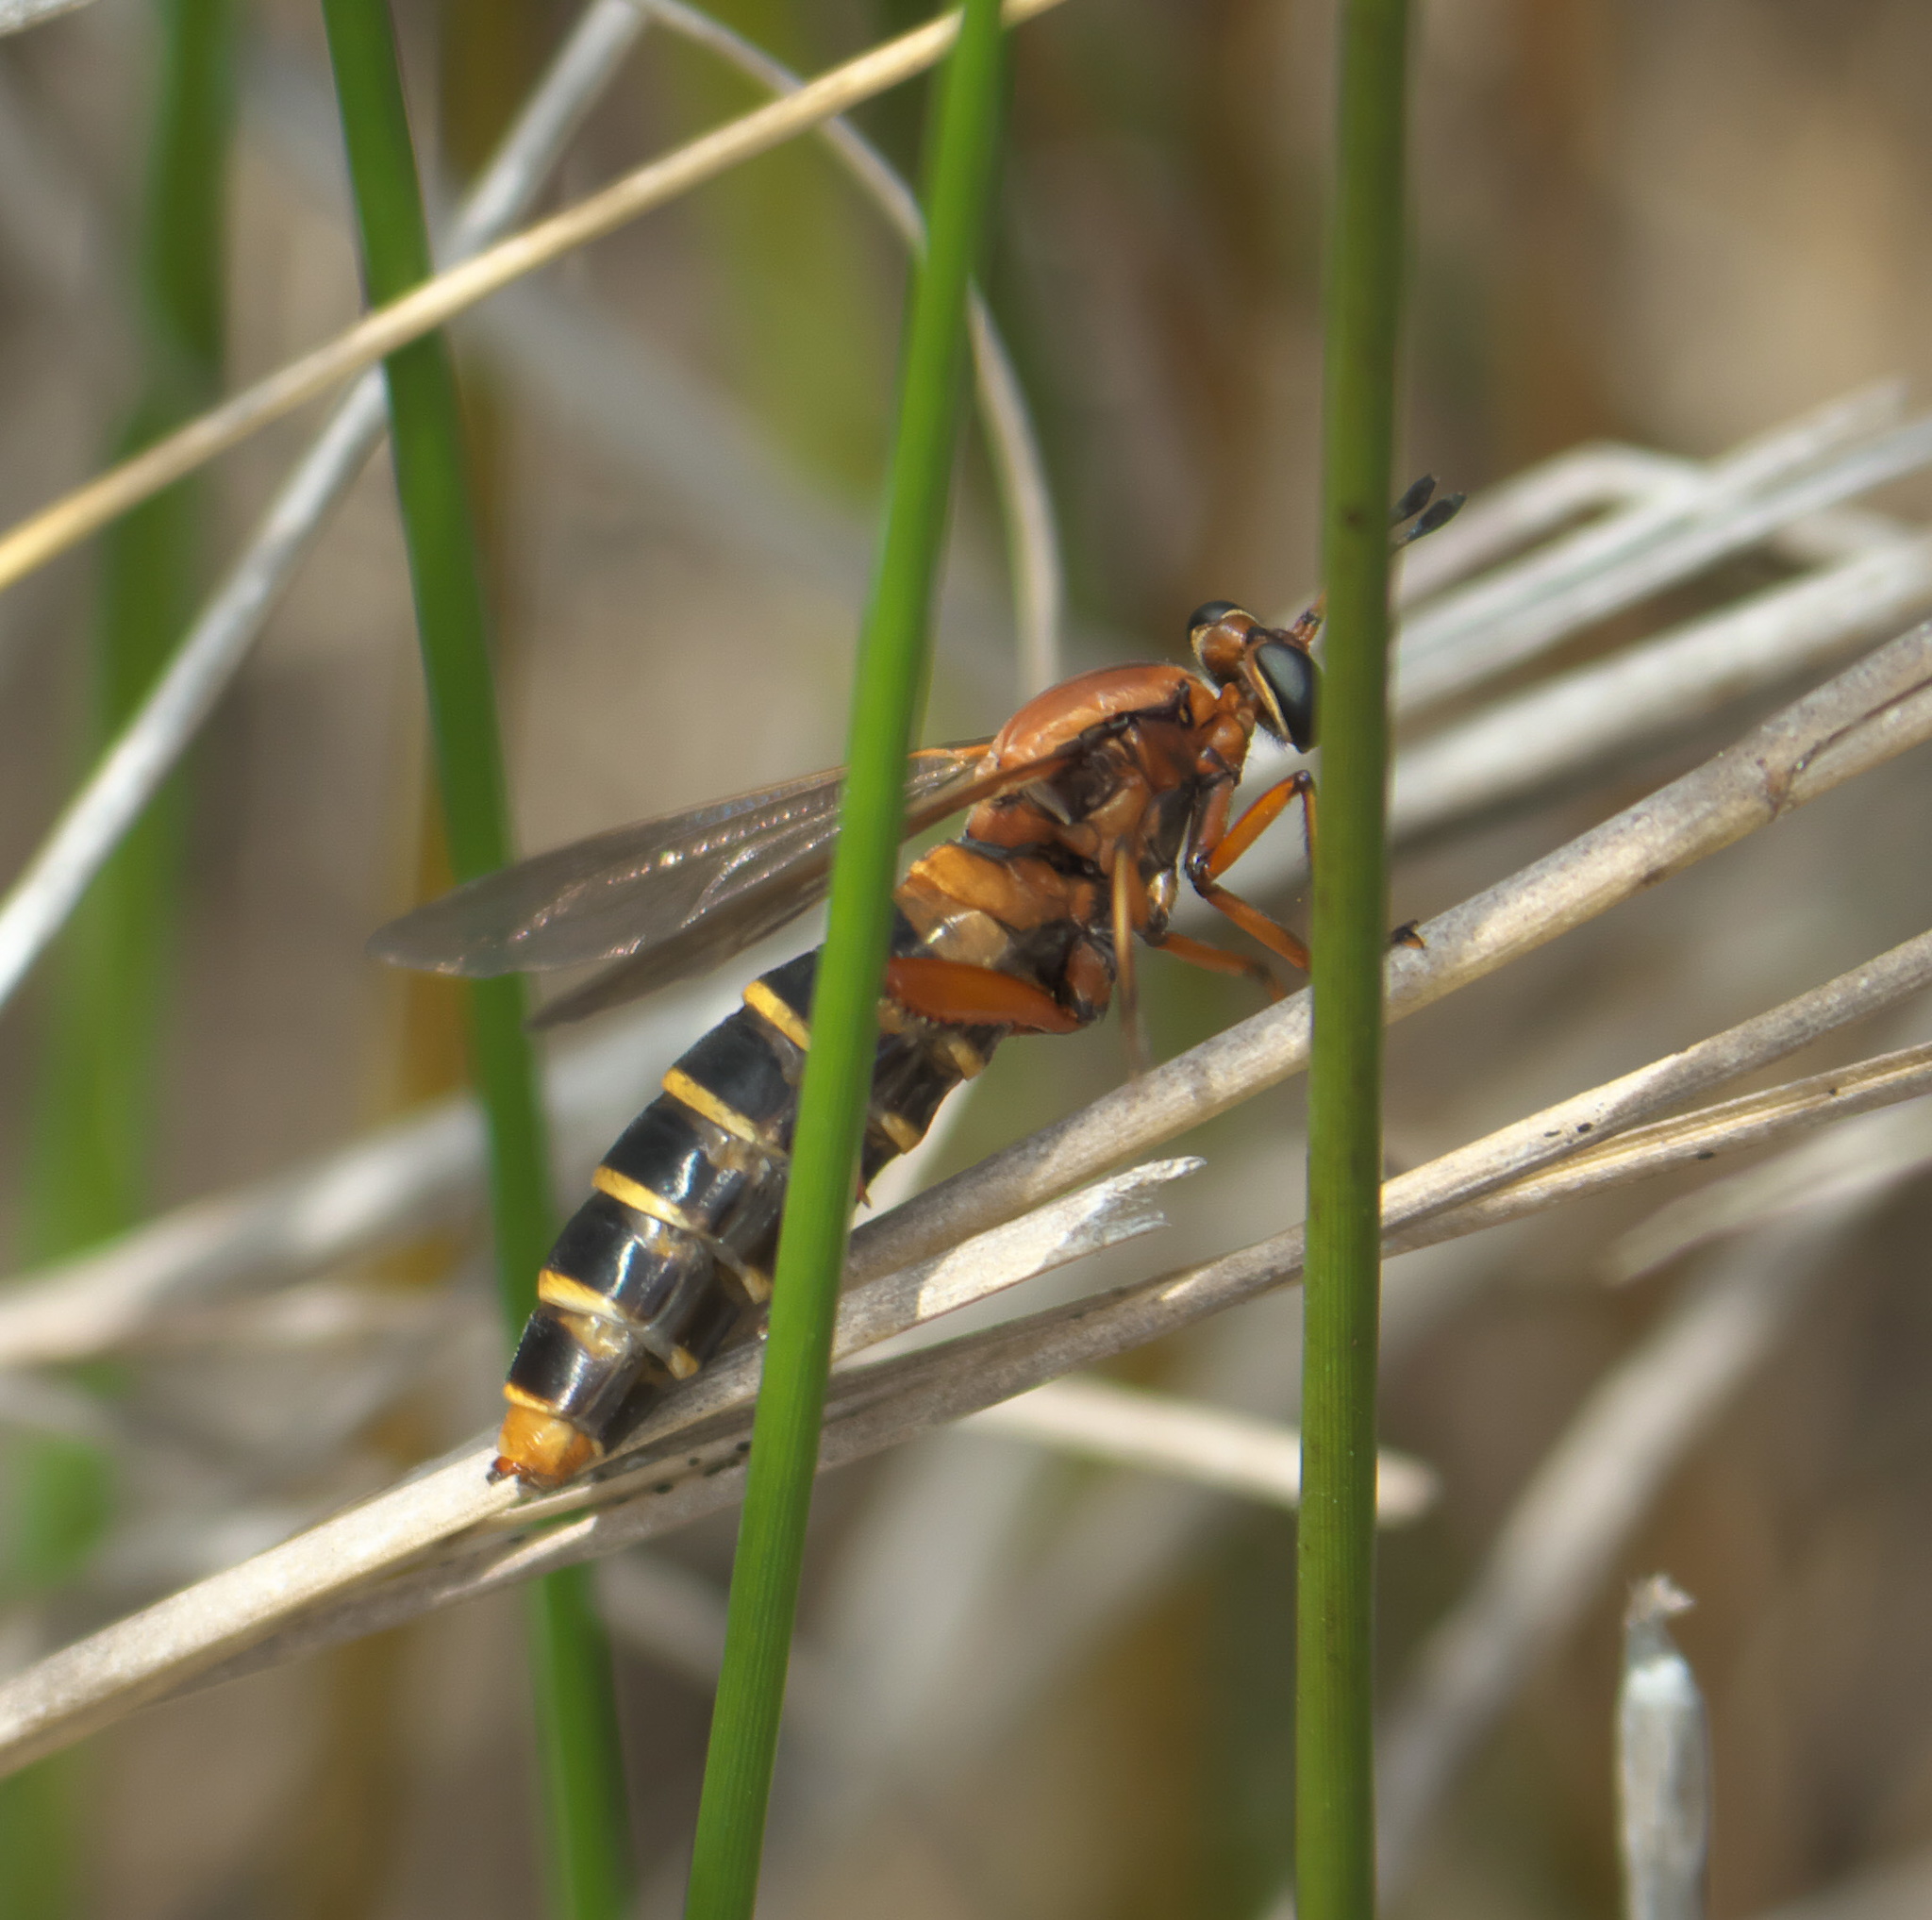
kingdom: Animalia
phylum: Arthropoda
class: Insecta
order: Diptera
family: Mydidae
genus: Mydas
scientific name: Mydas maculiventris
